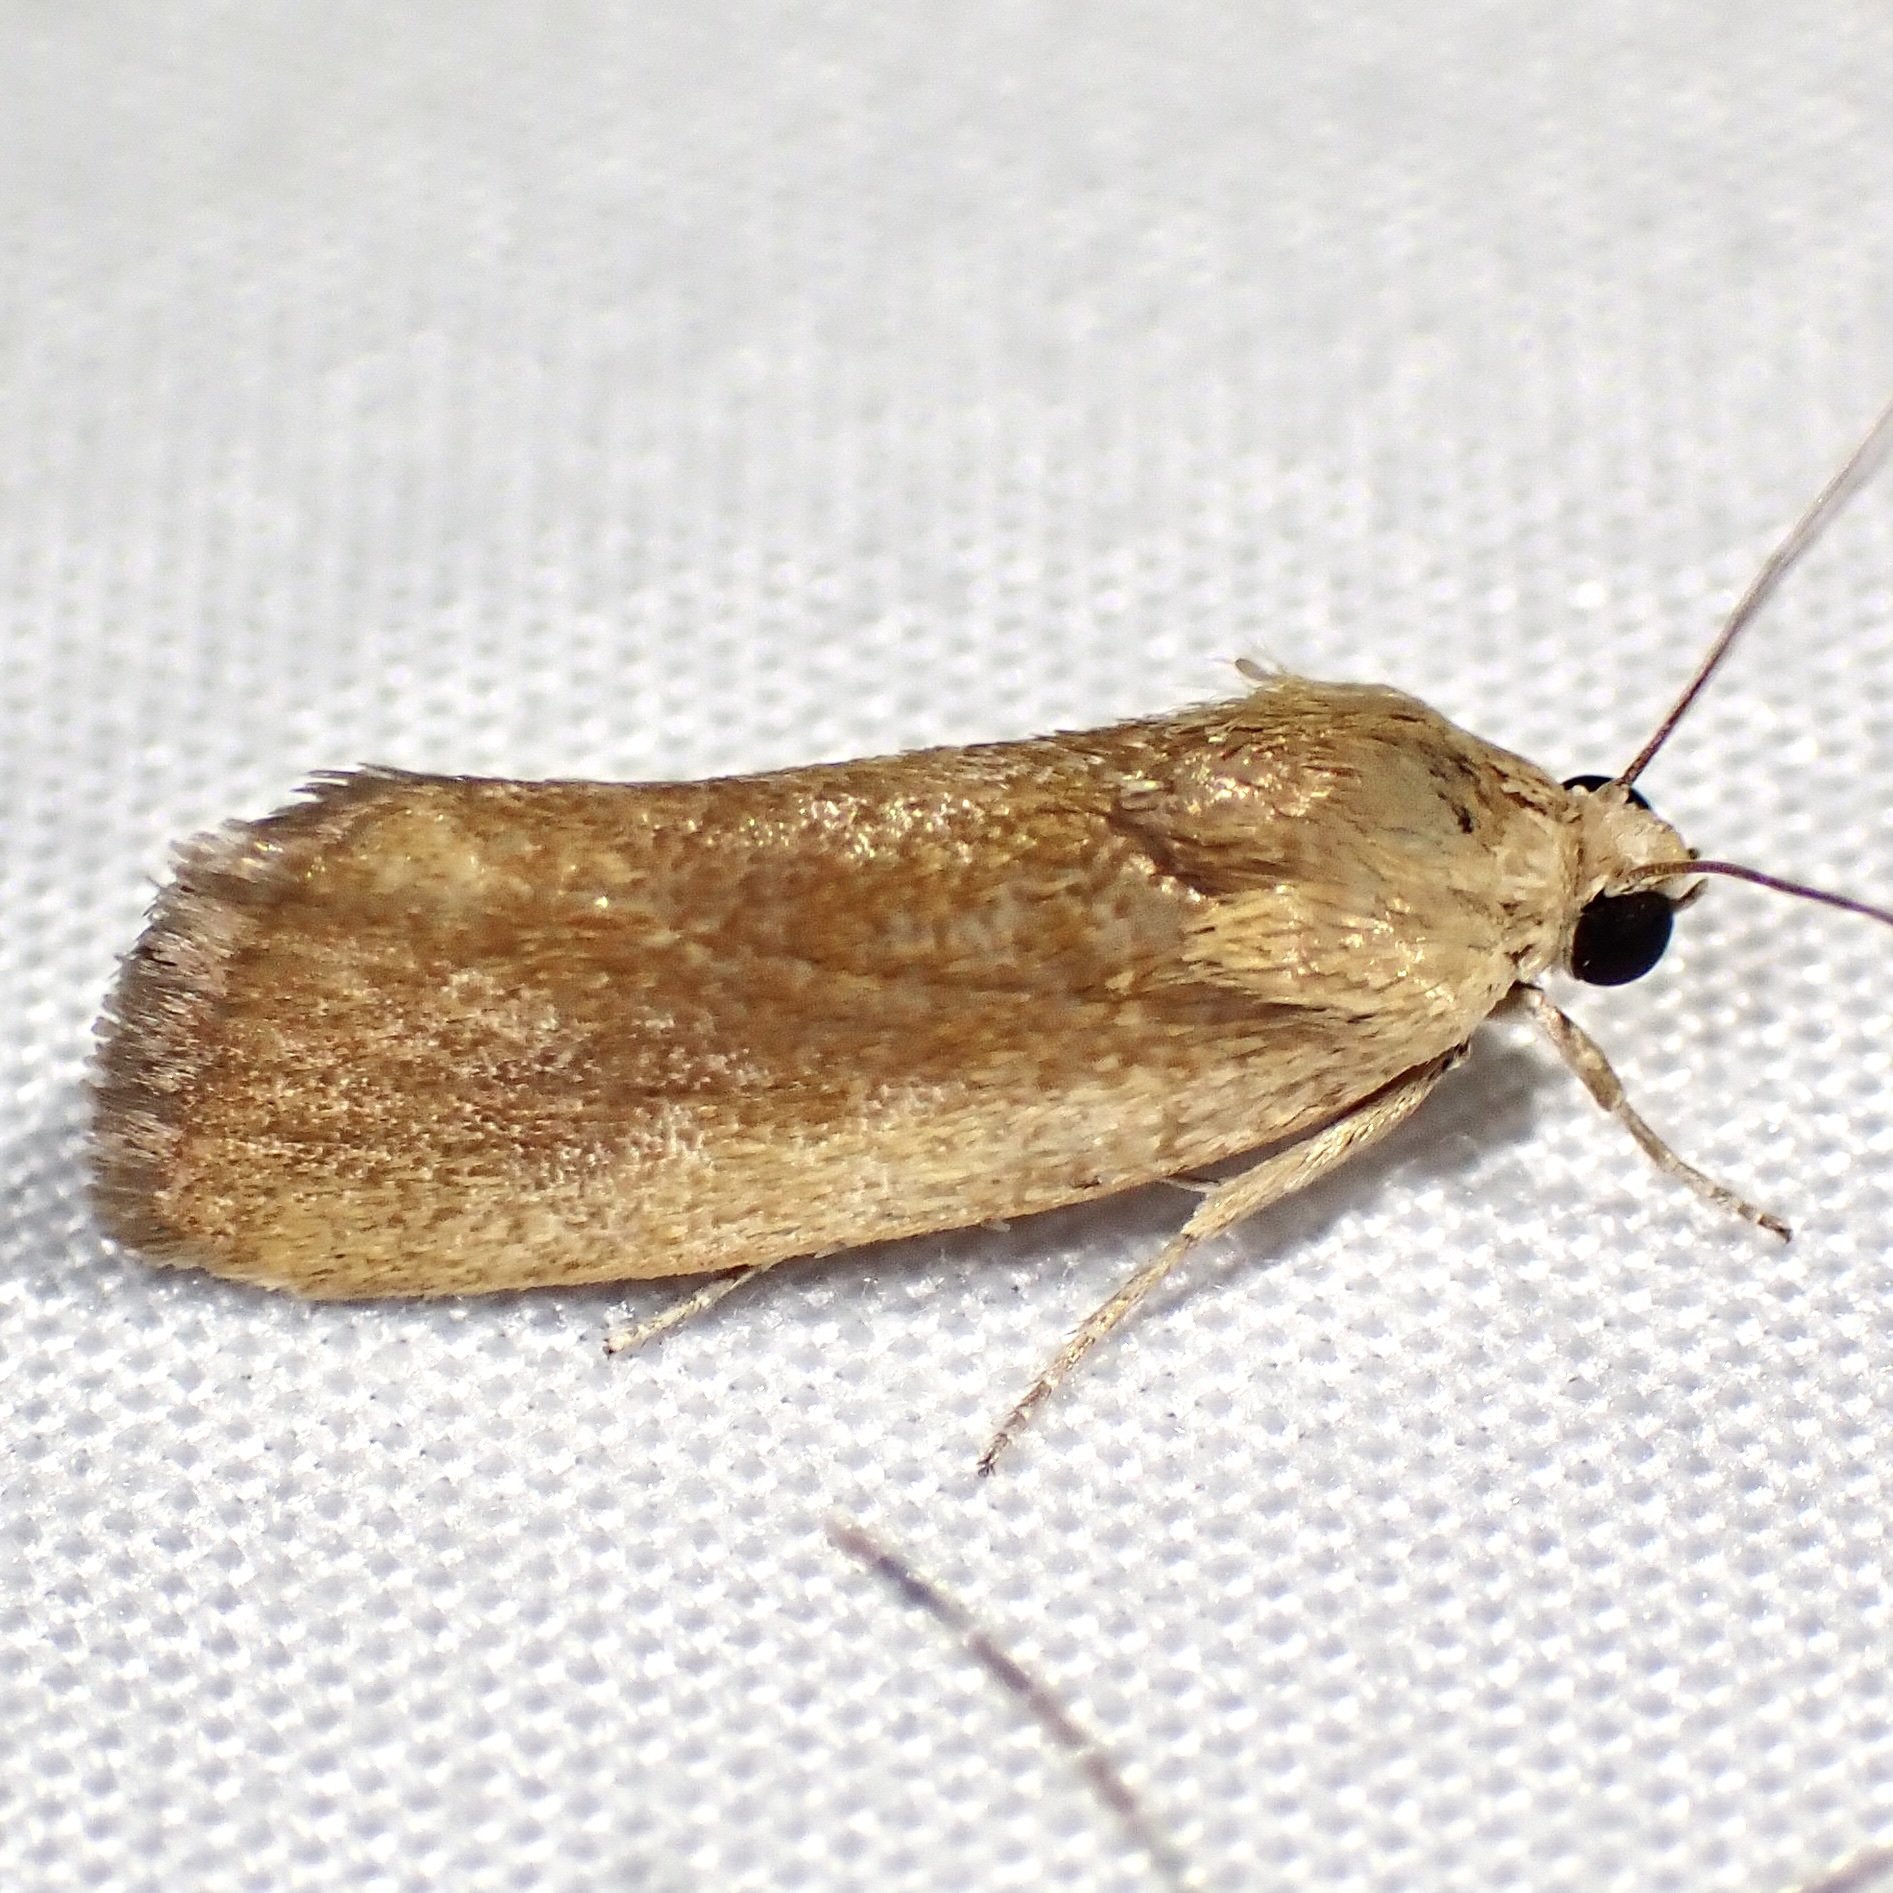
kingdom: Animalia
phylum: Arthropoda
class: Insecta
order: Lepidoptera
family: Noctuidae
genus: Acontia
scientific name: Acontia fasciatella
